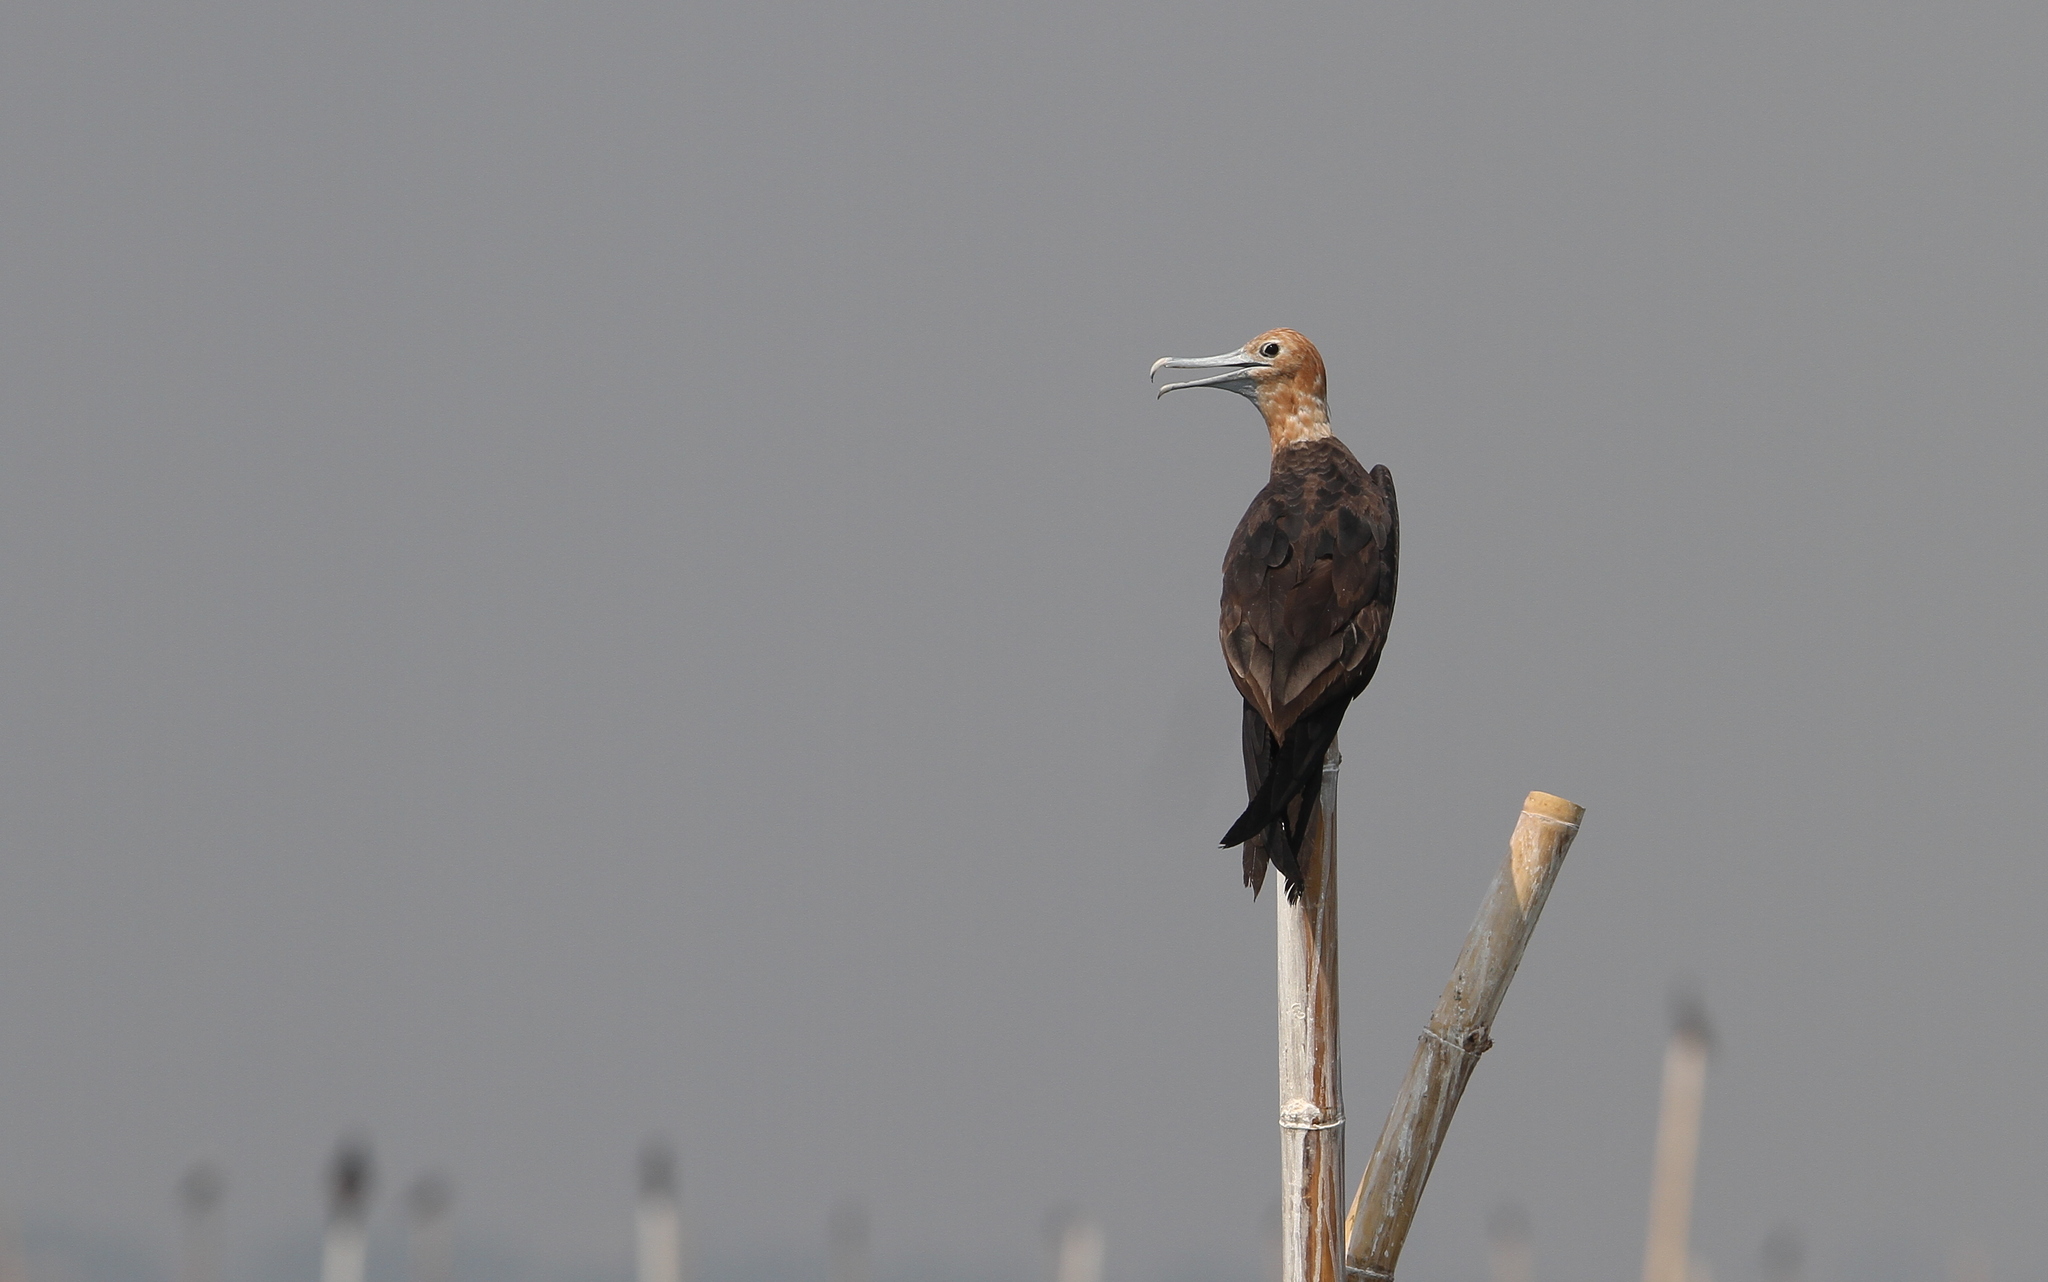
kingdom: Animalia
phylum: Chordata
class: Aves
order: Suliformes
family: Fregatidae
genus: Fregata
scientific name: Fregata andrewsi
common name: Christmas frigatebird
